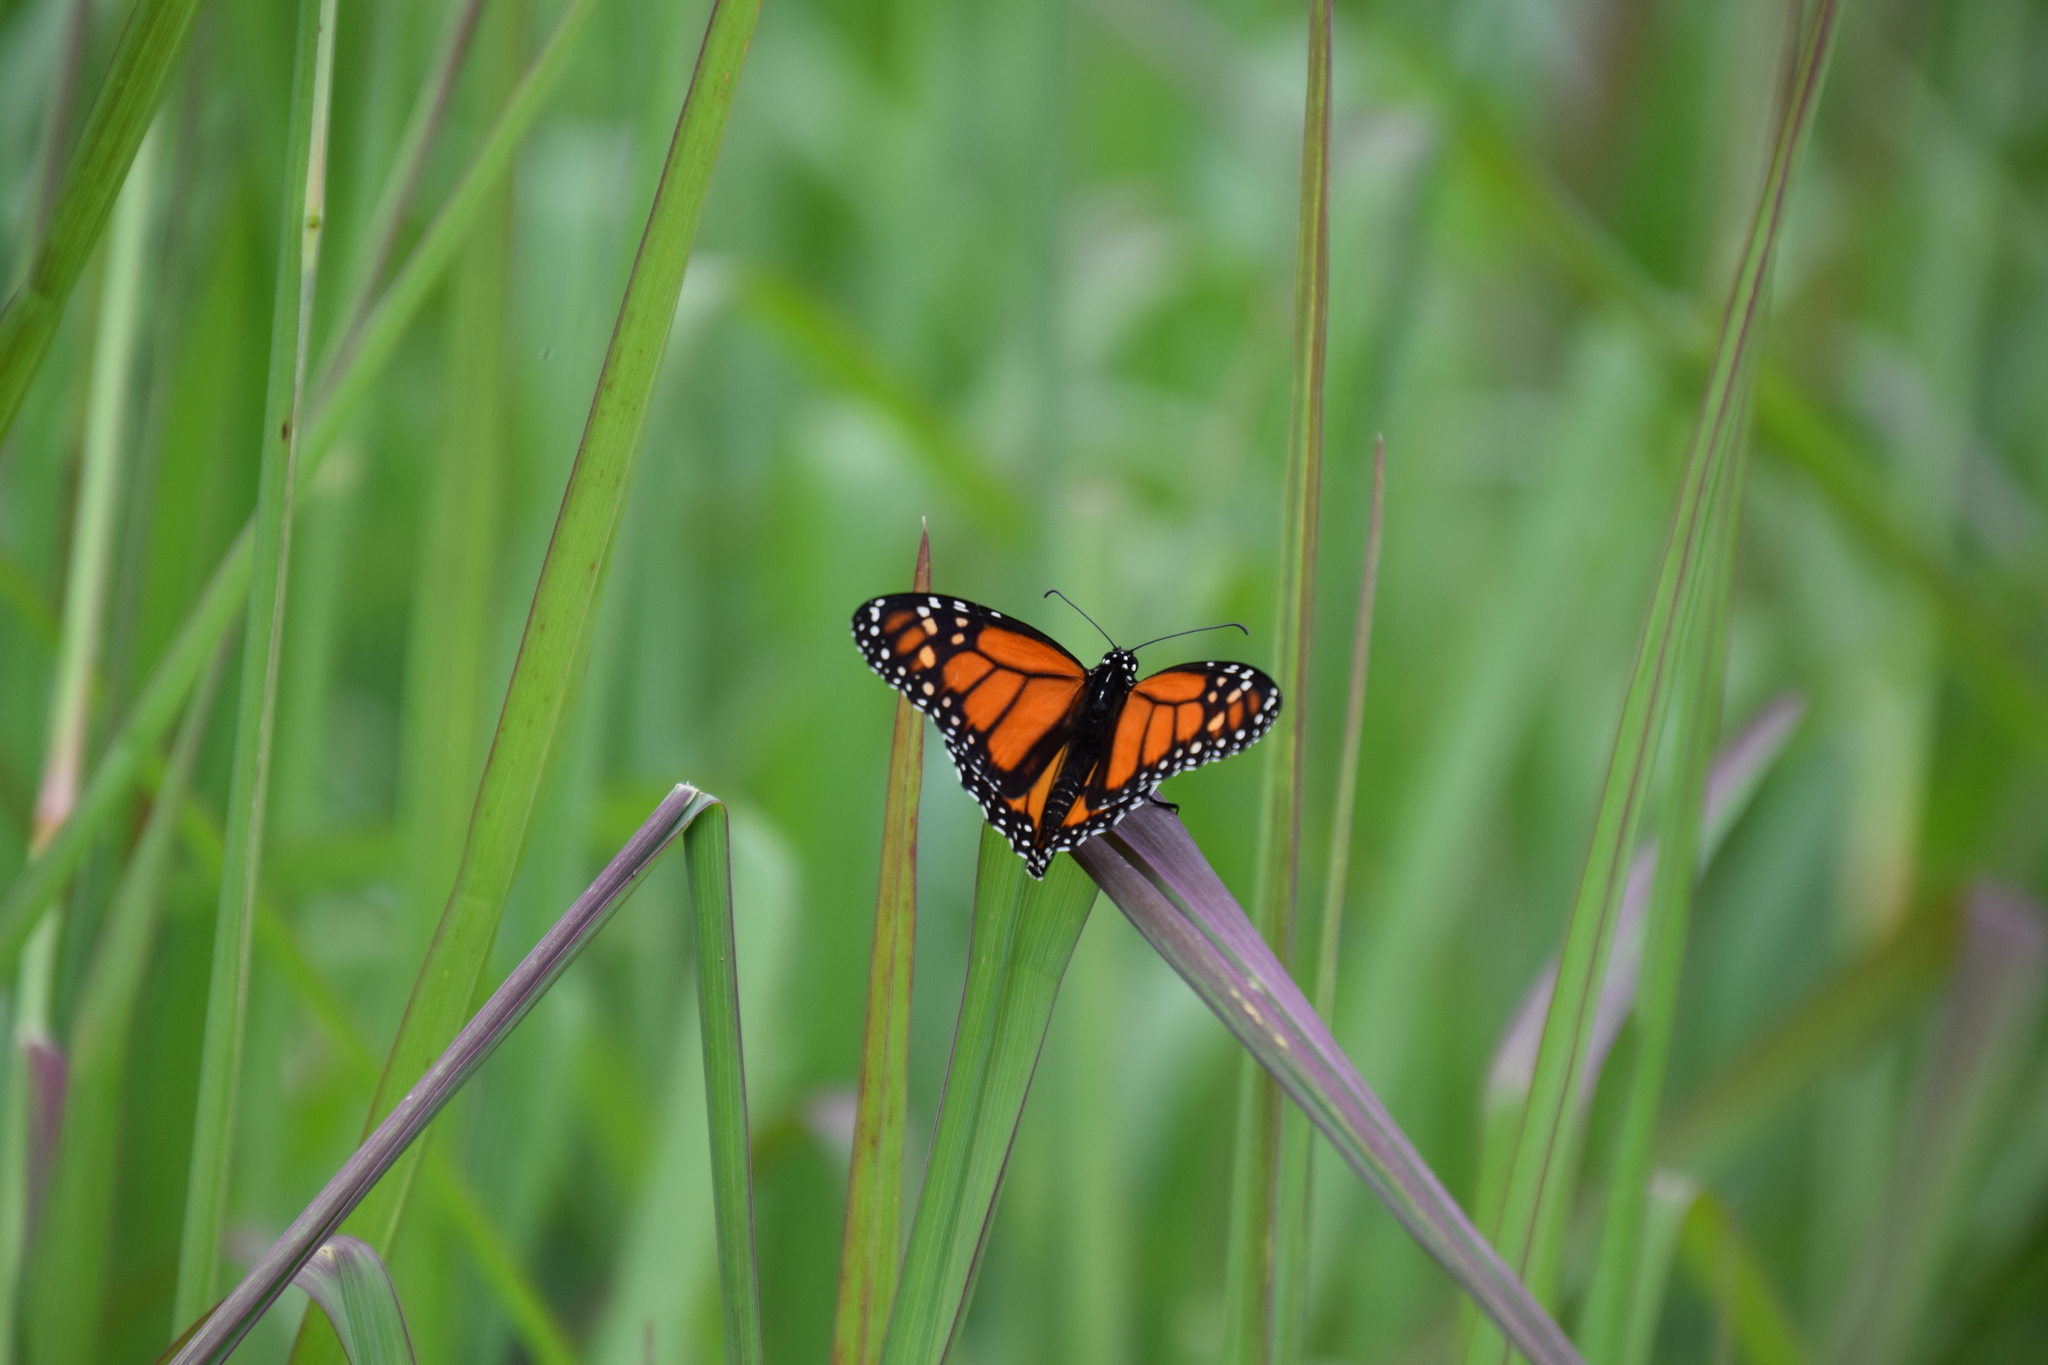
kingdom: Animalia
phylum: Arthropoda
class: Insecta
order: Lepidoptera
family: Nymphalidae
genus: Danaus
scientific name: Danaus plexippus
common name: Monarch
